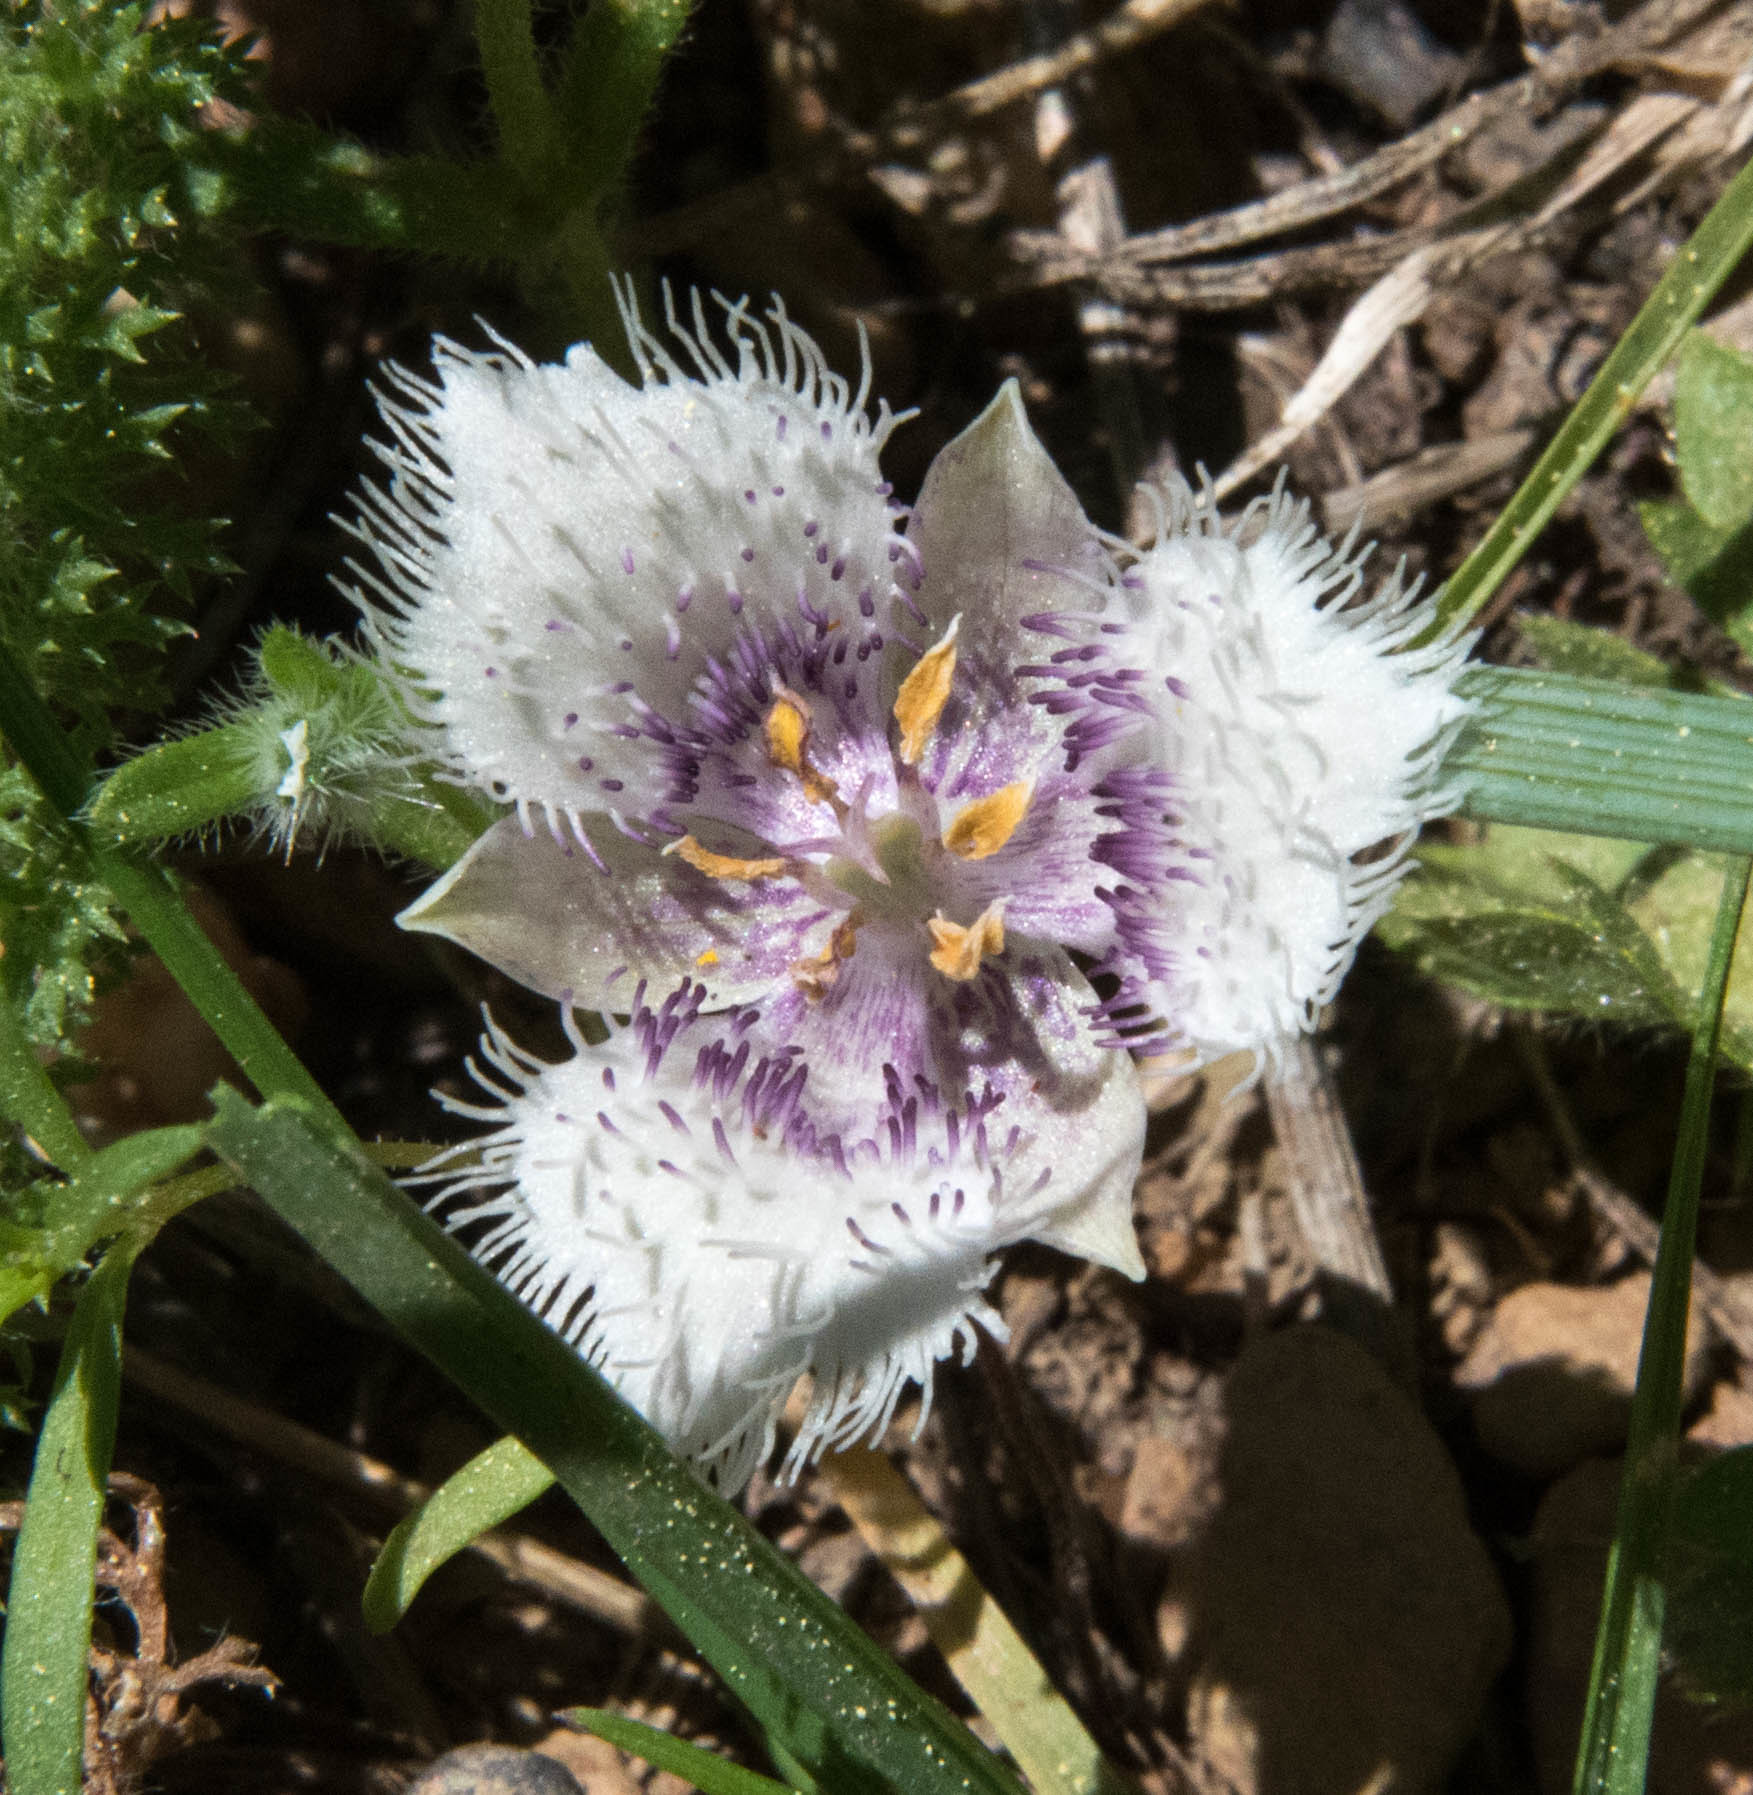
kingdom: Plantae
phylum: Tracheophyta
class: Liliopsida
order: Liliales
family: Liliaceae
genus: Calochortus
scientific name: Calochortus coeruleus
